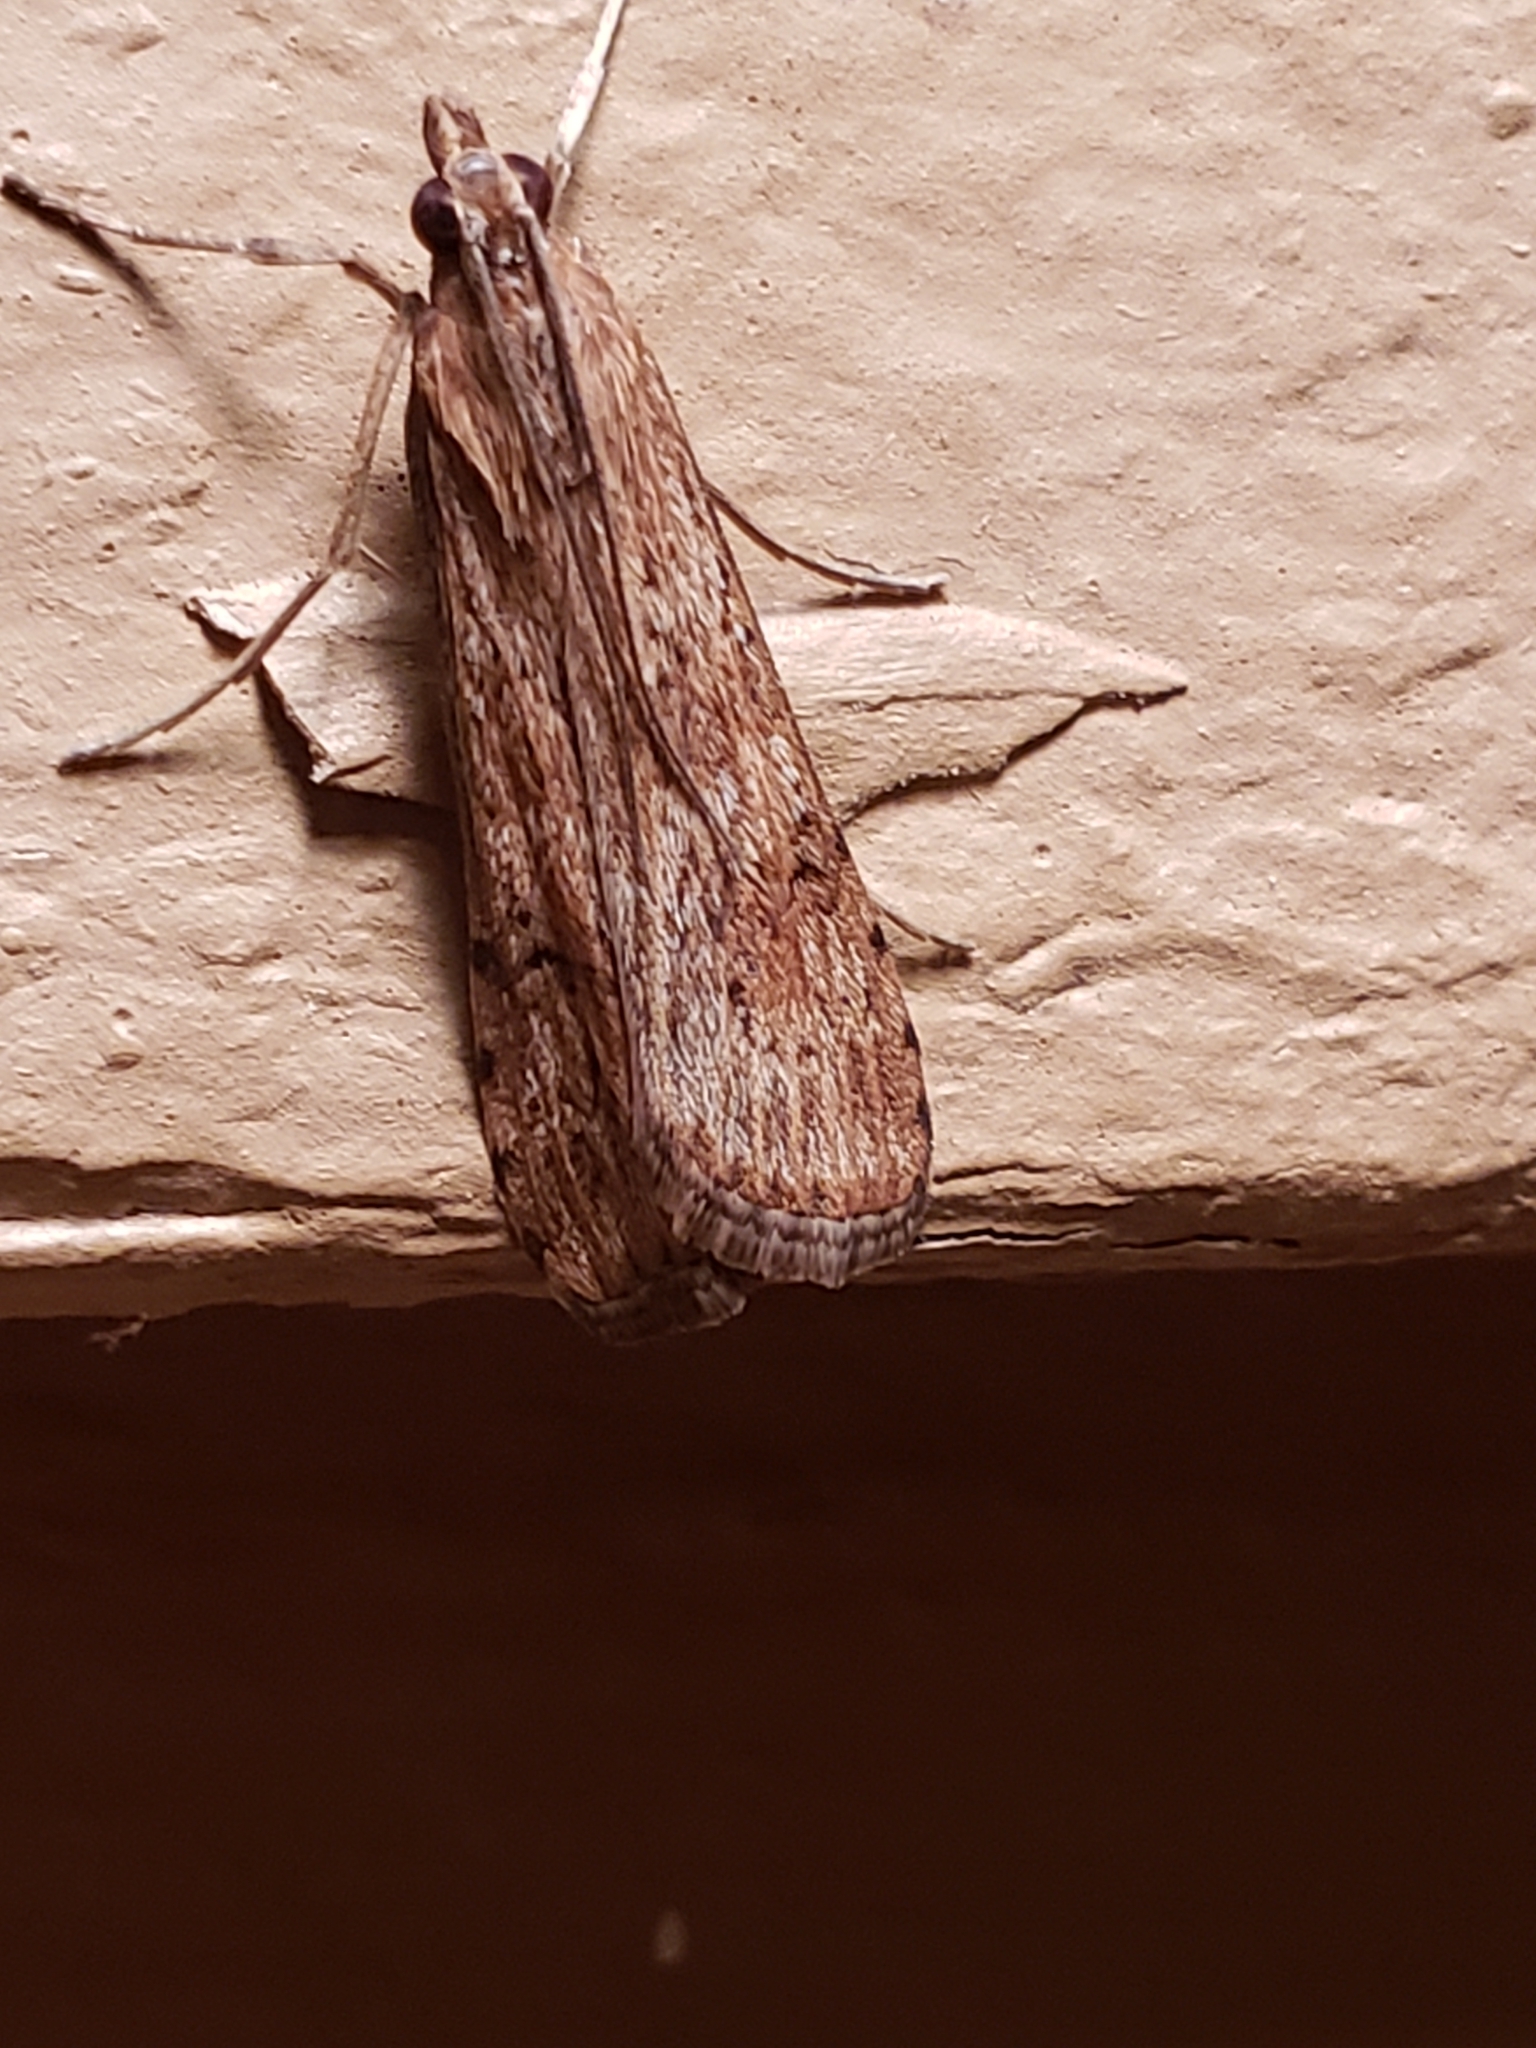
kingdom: Animalia
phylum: Arthropoda
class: Insecta
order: Lepidoptera
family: Crambidae
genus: Nomophila
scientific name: Nomophila nearctica
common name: American rush veneer
